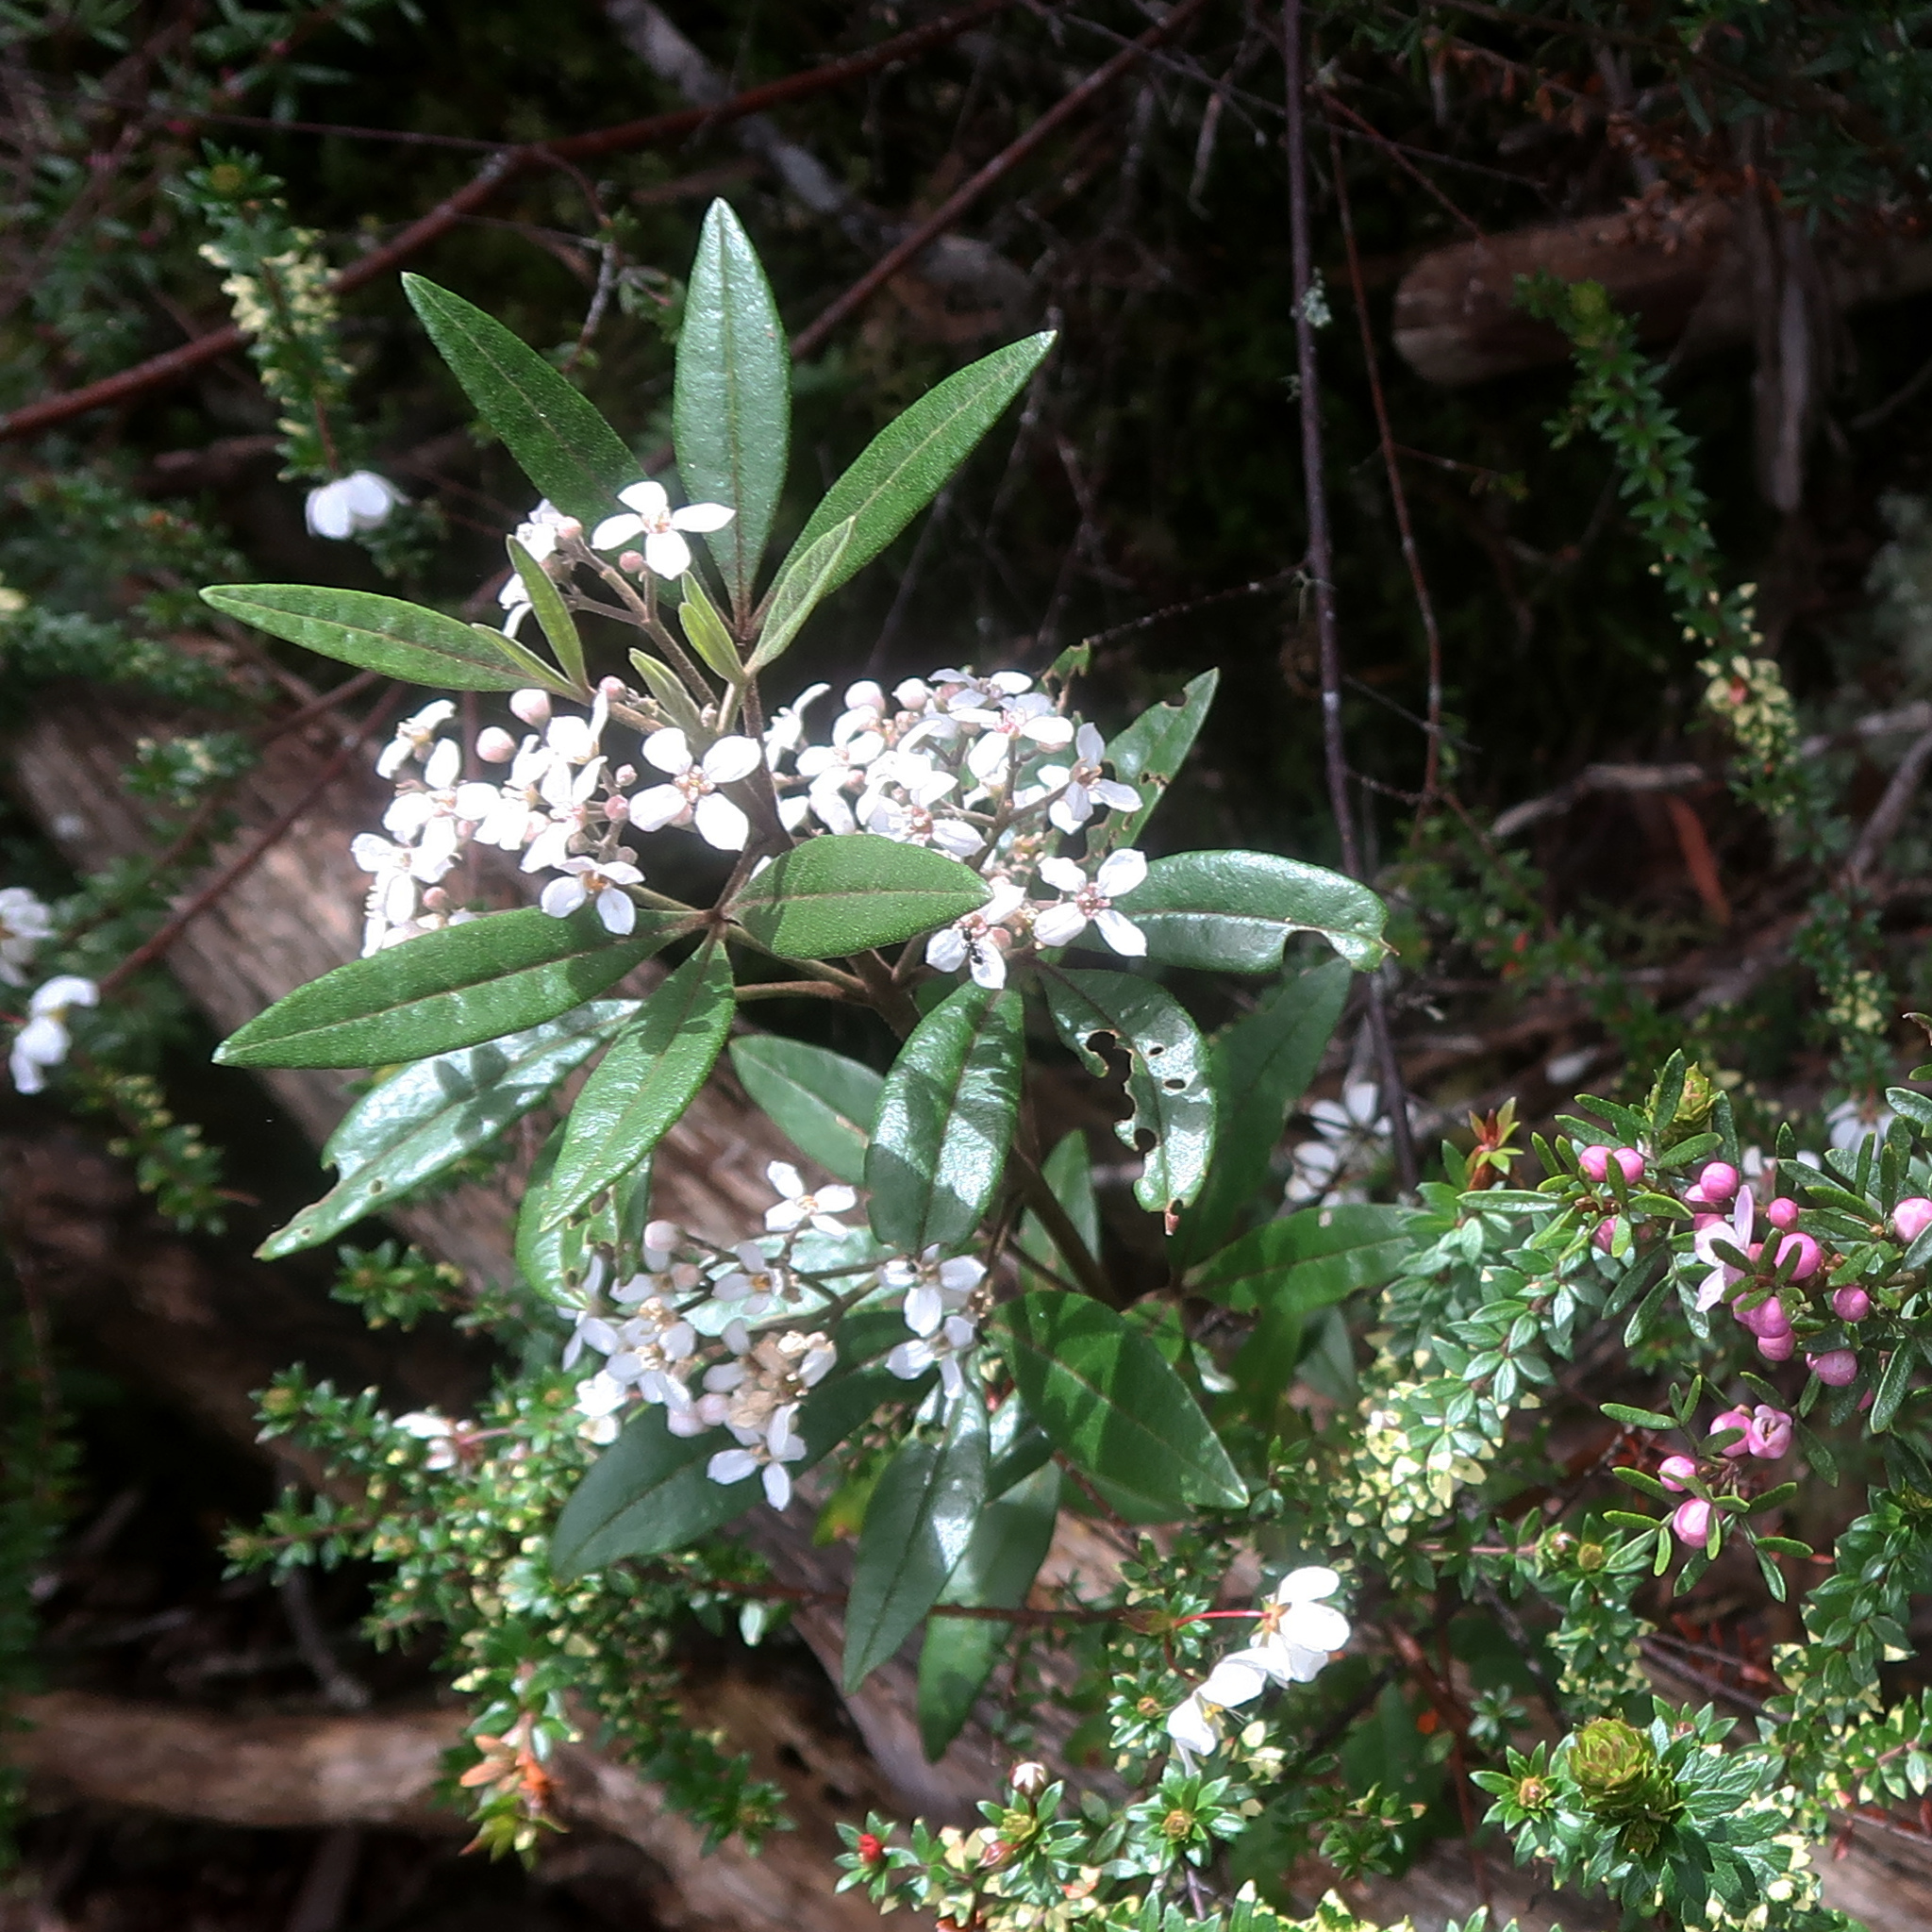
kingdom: Plantae
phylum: Tracheophyta
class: Magnoliopsida
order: Sapindales
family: Rutaceae
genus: Zieria
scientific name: Zieria arborescens
